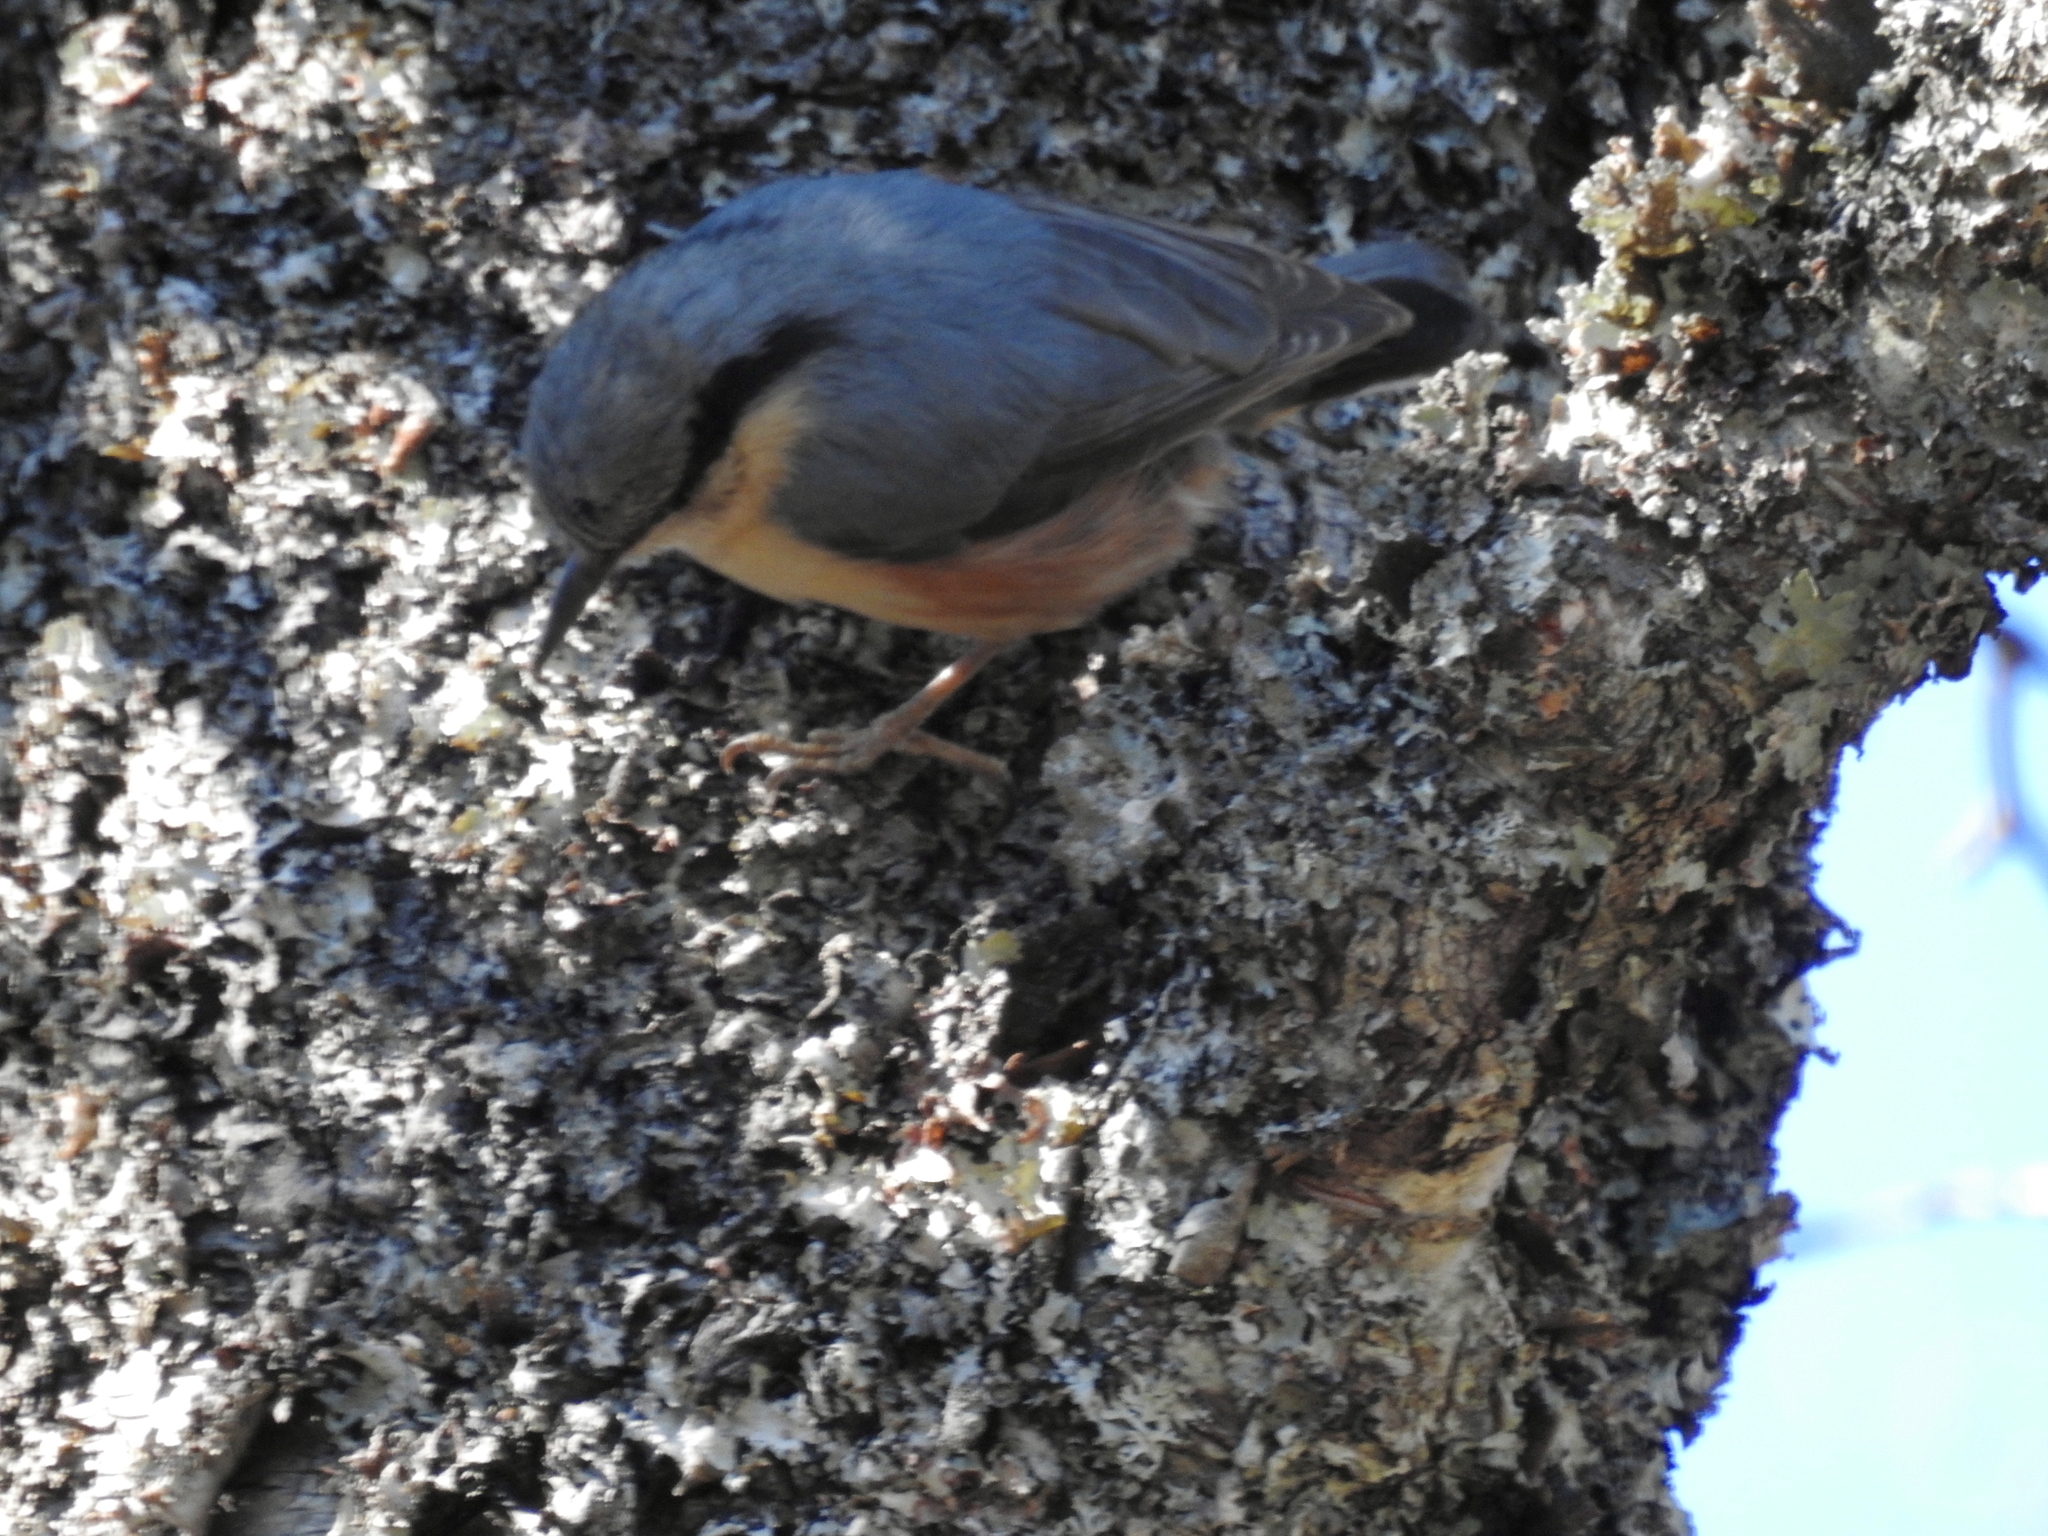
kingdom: Animalia
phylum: Chordata
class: Aves
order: Passeriformes
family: Sittidae
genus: Sitta
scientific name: Sitta europaea
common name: Eurasian nuthatch
